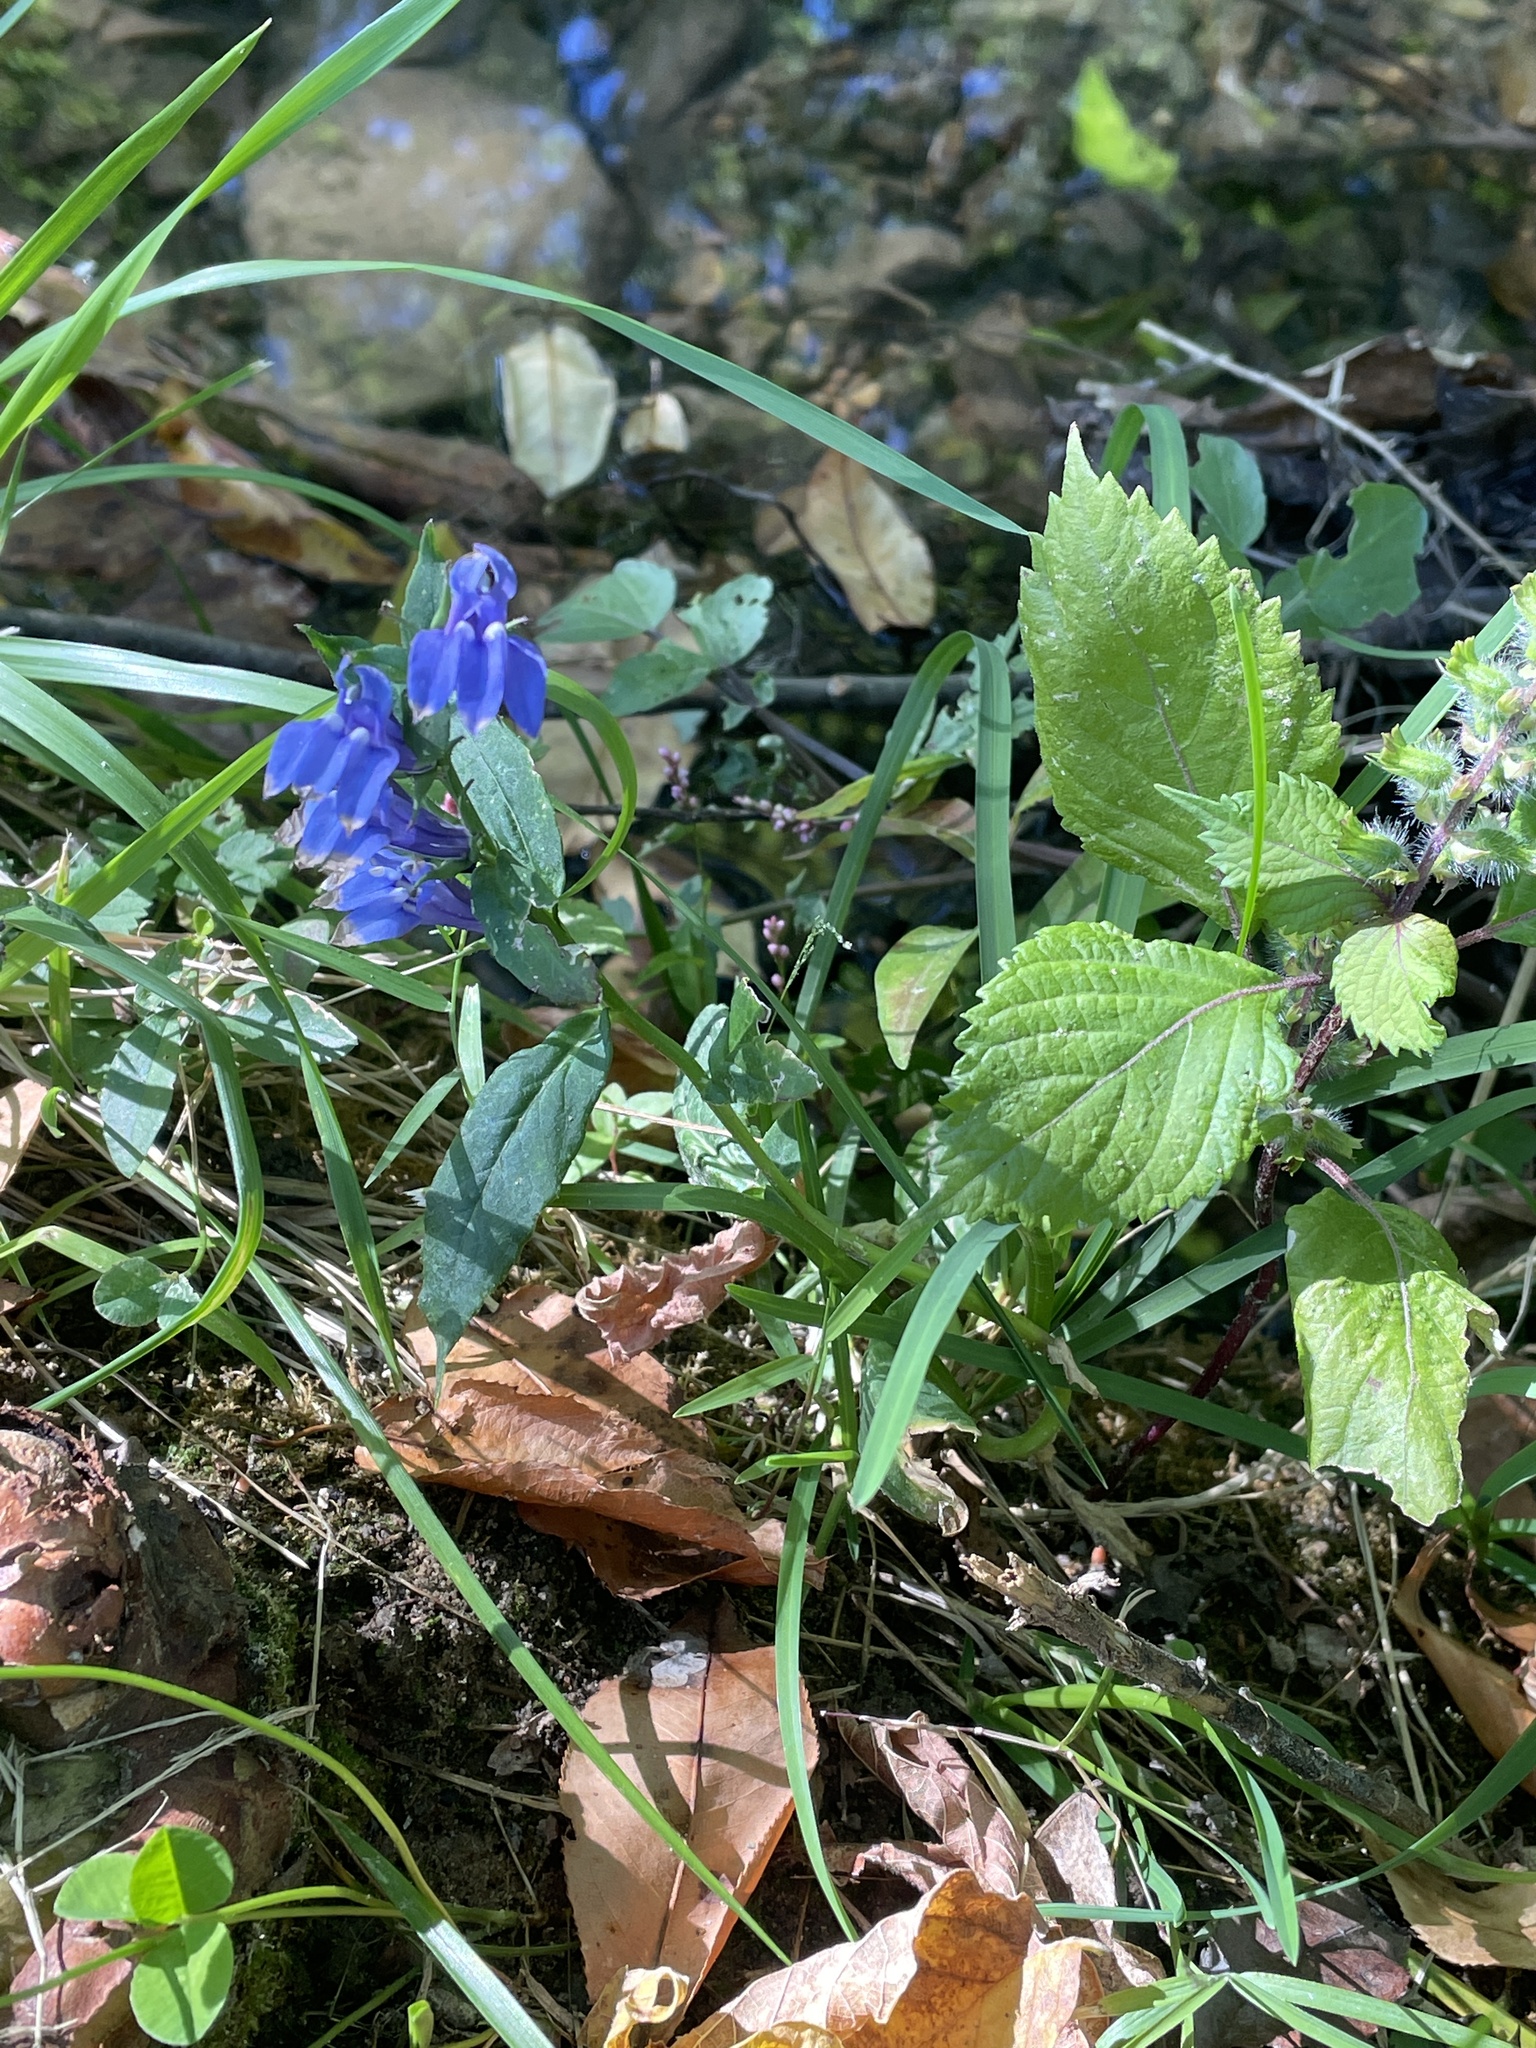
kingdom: Plantae
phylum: Tracheophyta
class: Magnoliopsida
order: Asterales
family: Campanulaceae
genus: Lobelia
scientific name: Lobelia siphilitica
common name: Great lobelia
